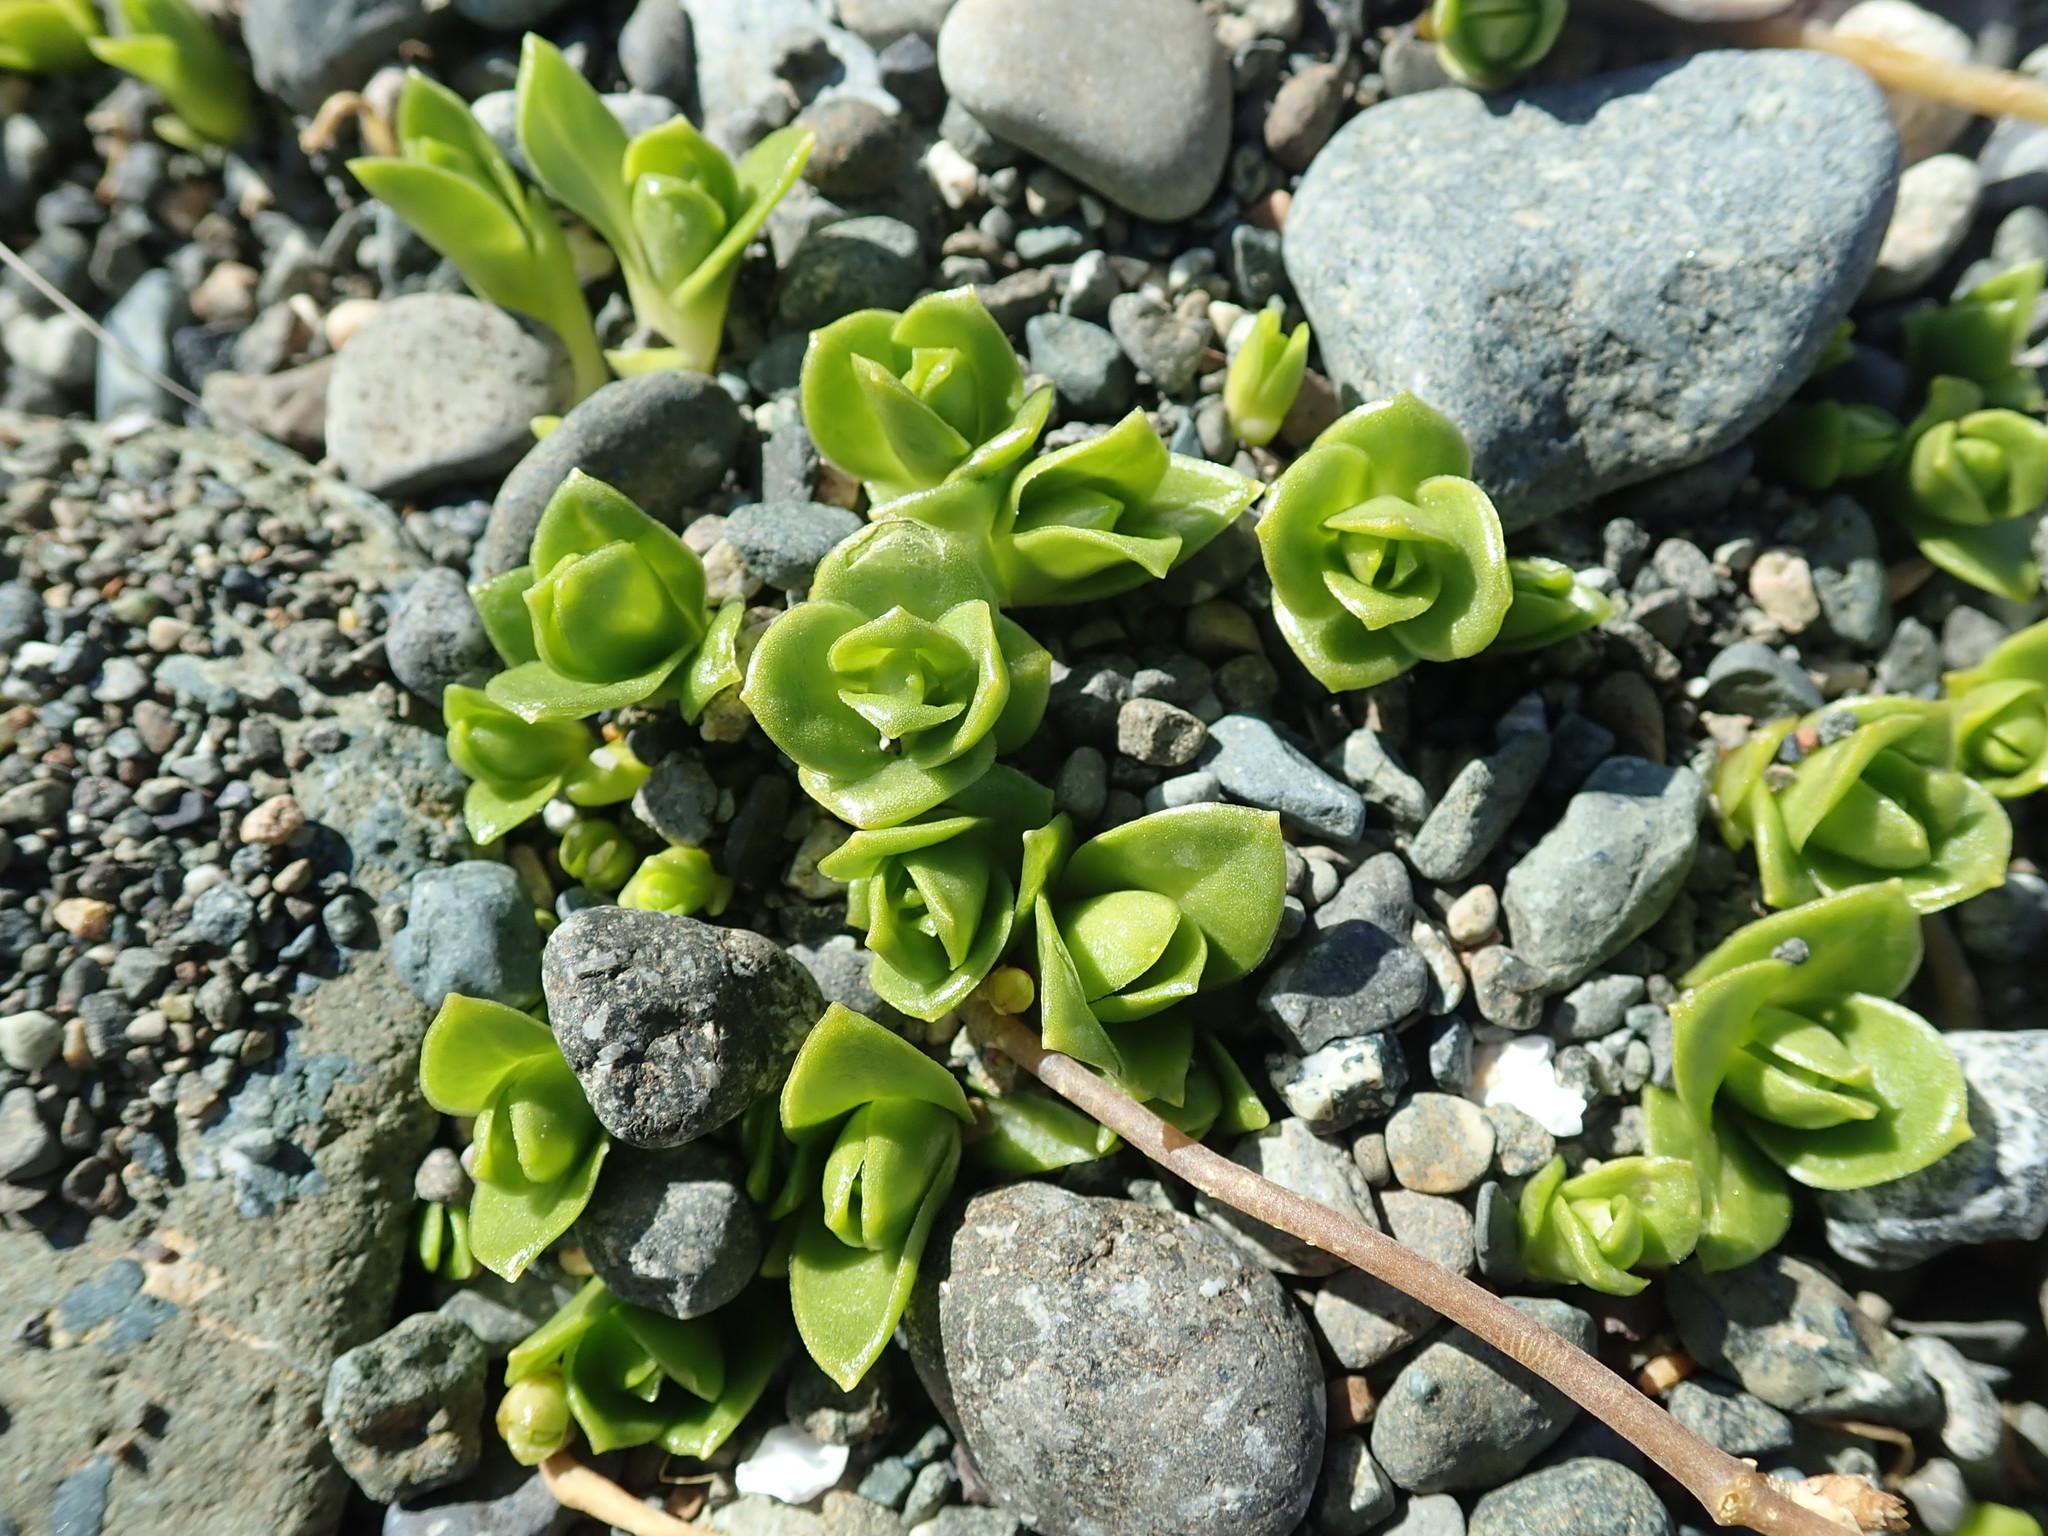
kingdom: Plantae
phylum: Tracheophyta
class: Magnoliopsida
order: Caryophyllales
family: Caryophyllaceae
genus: Honckenya
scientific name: Honckenya peploides
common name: Sea sandwort
